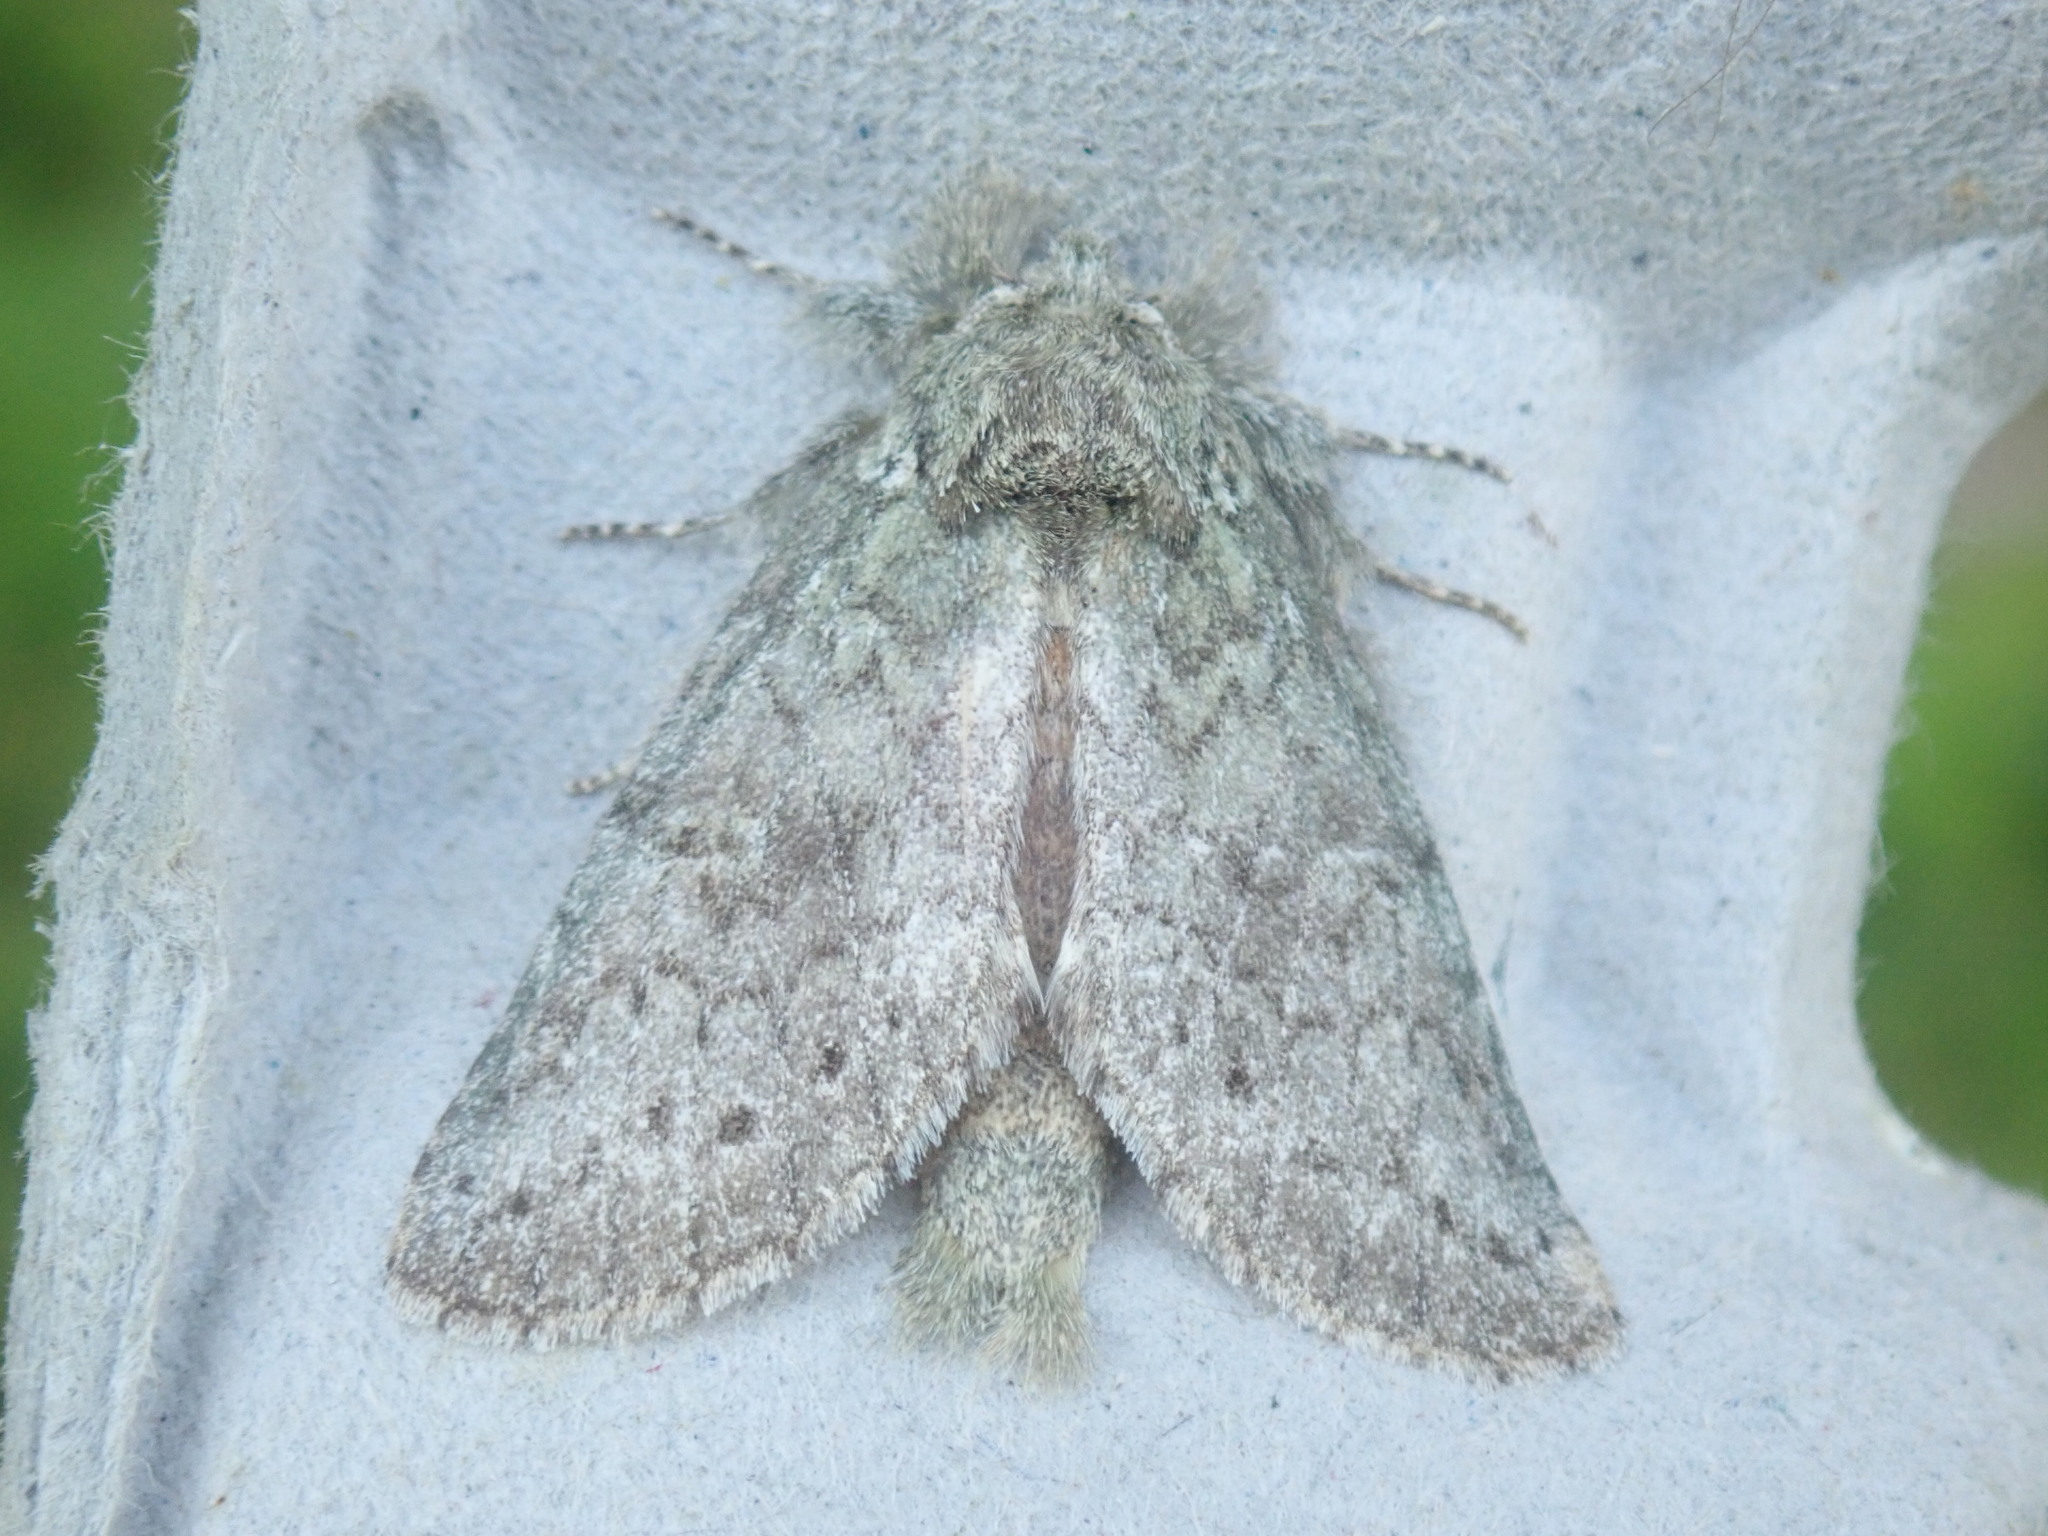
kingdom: Animalia
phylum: Arthropoda
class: Insecta
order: Lepidoptera
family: Notodontidae
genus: Disphragis
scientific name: Disphragis Cecrita guttivitta
